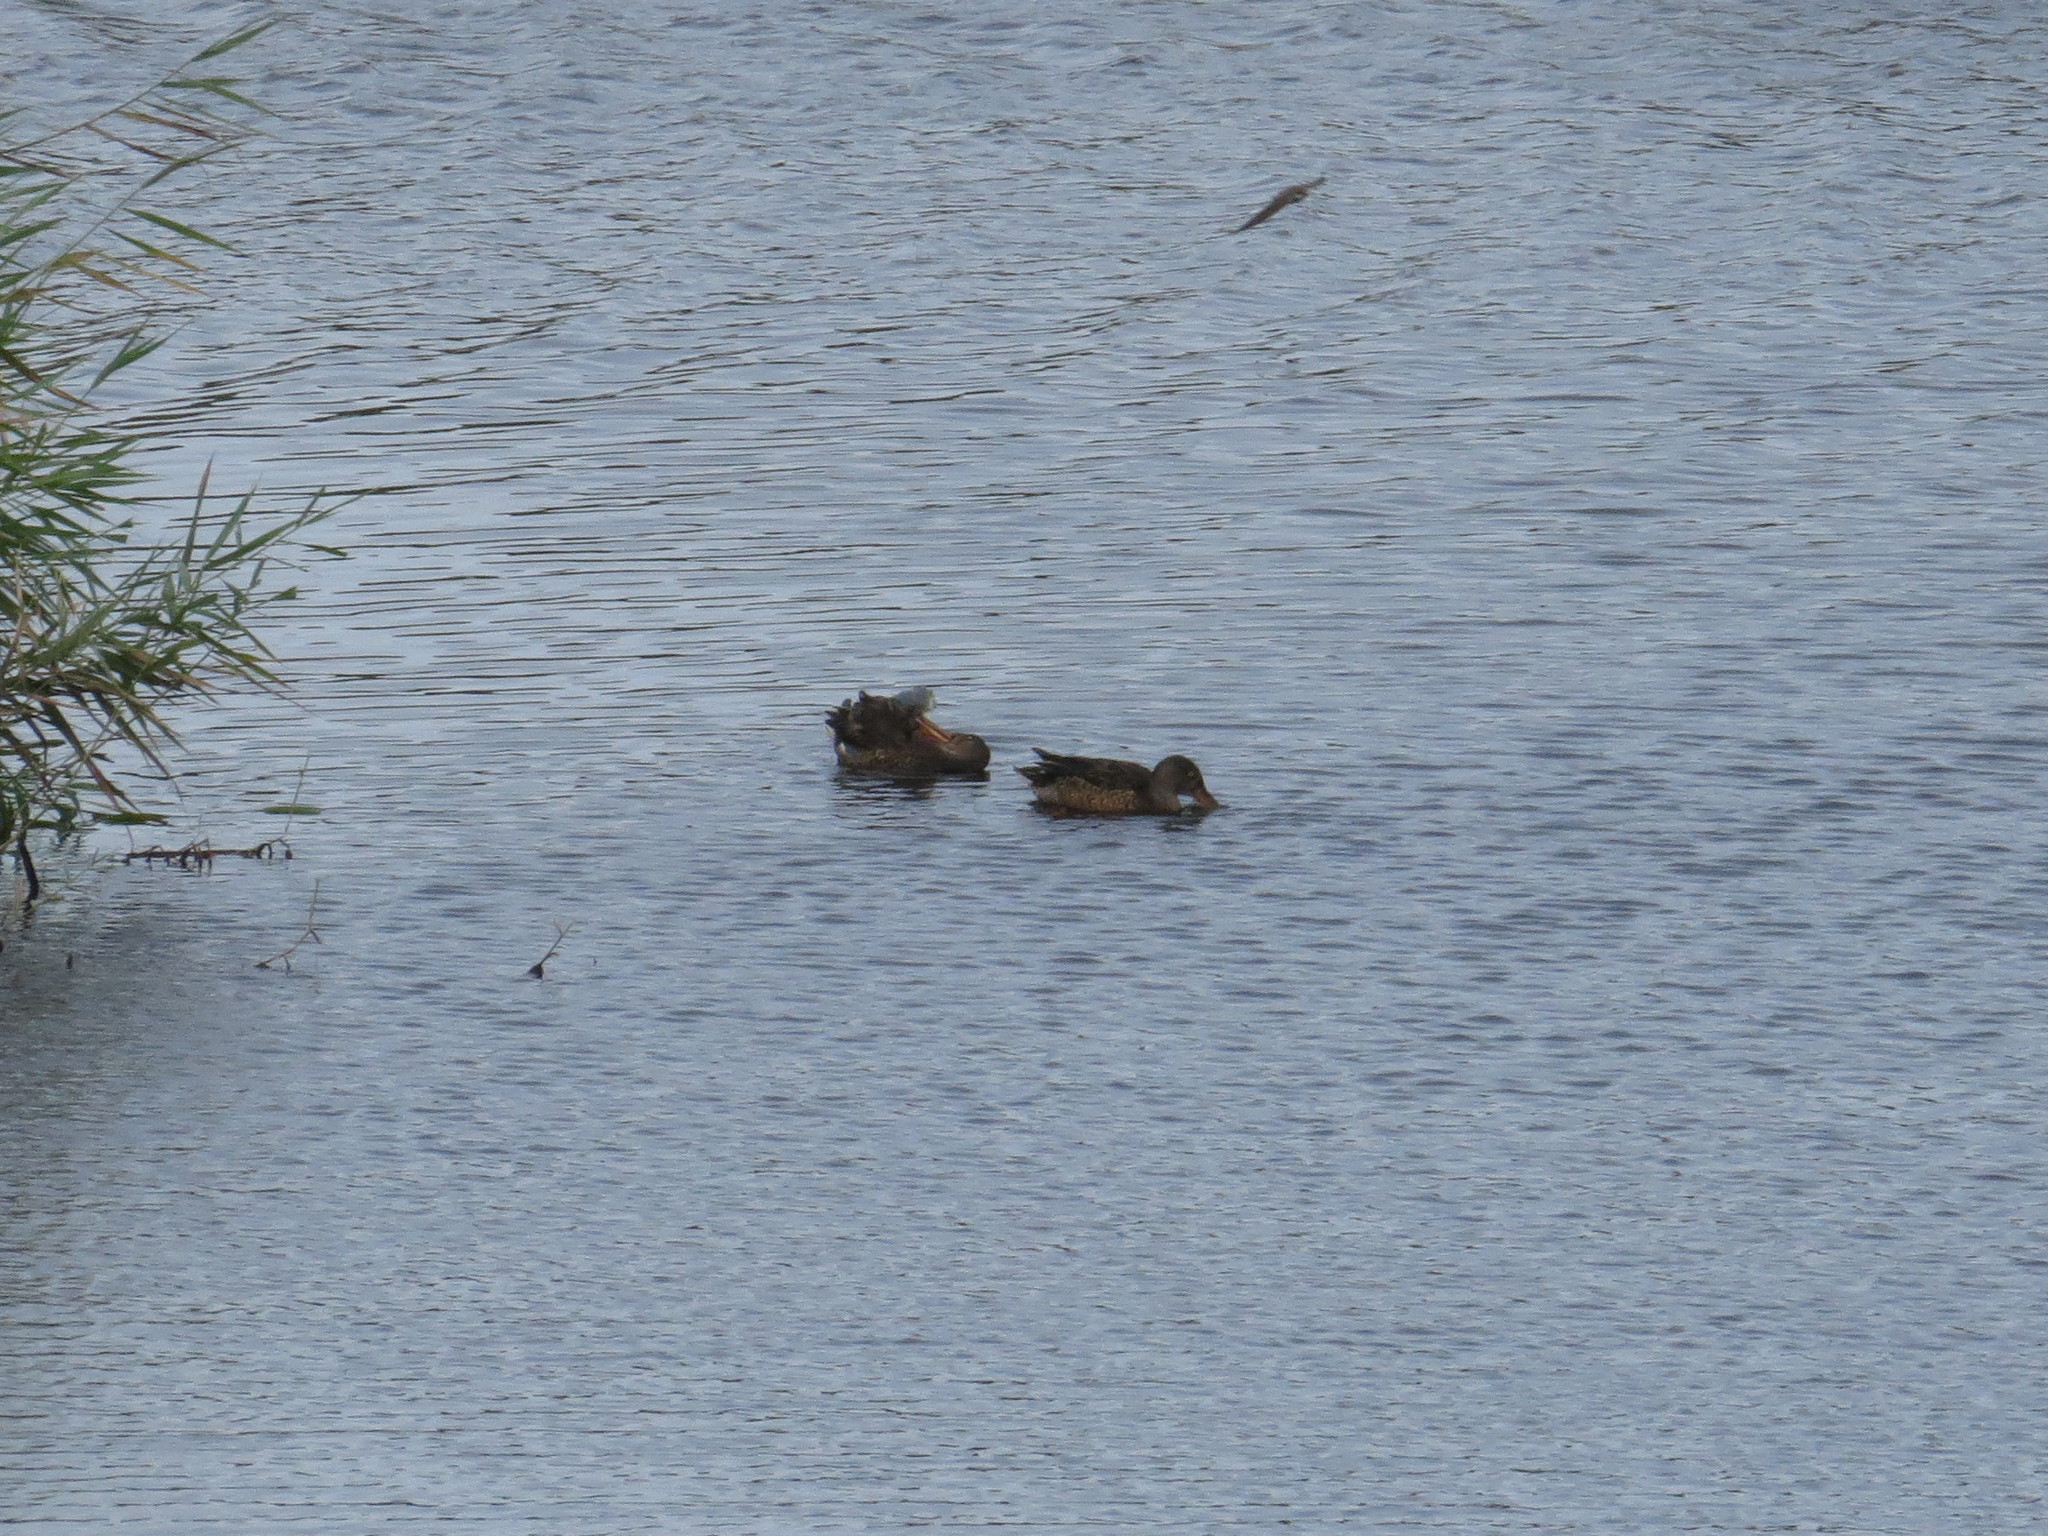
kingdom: Animalia
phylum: Chordata
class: Aves
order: Anseriformes
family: Anatidae
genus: Spatula
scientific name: Spatula clypeata
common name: Northern shoveler
